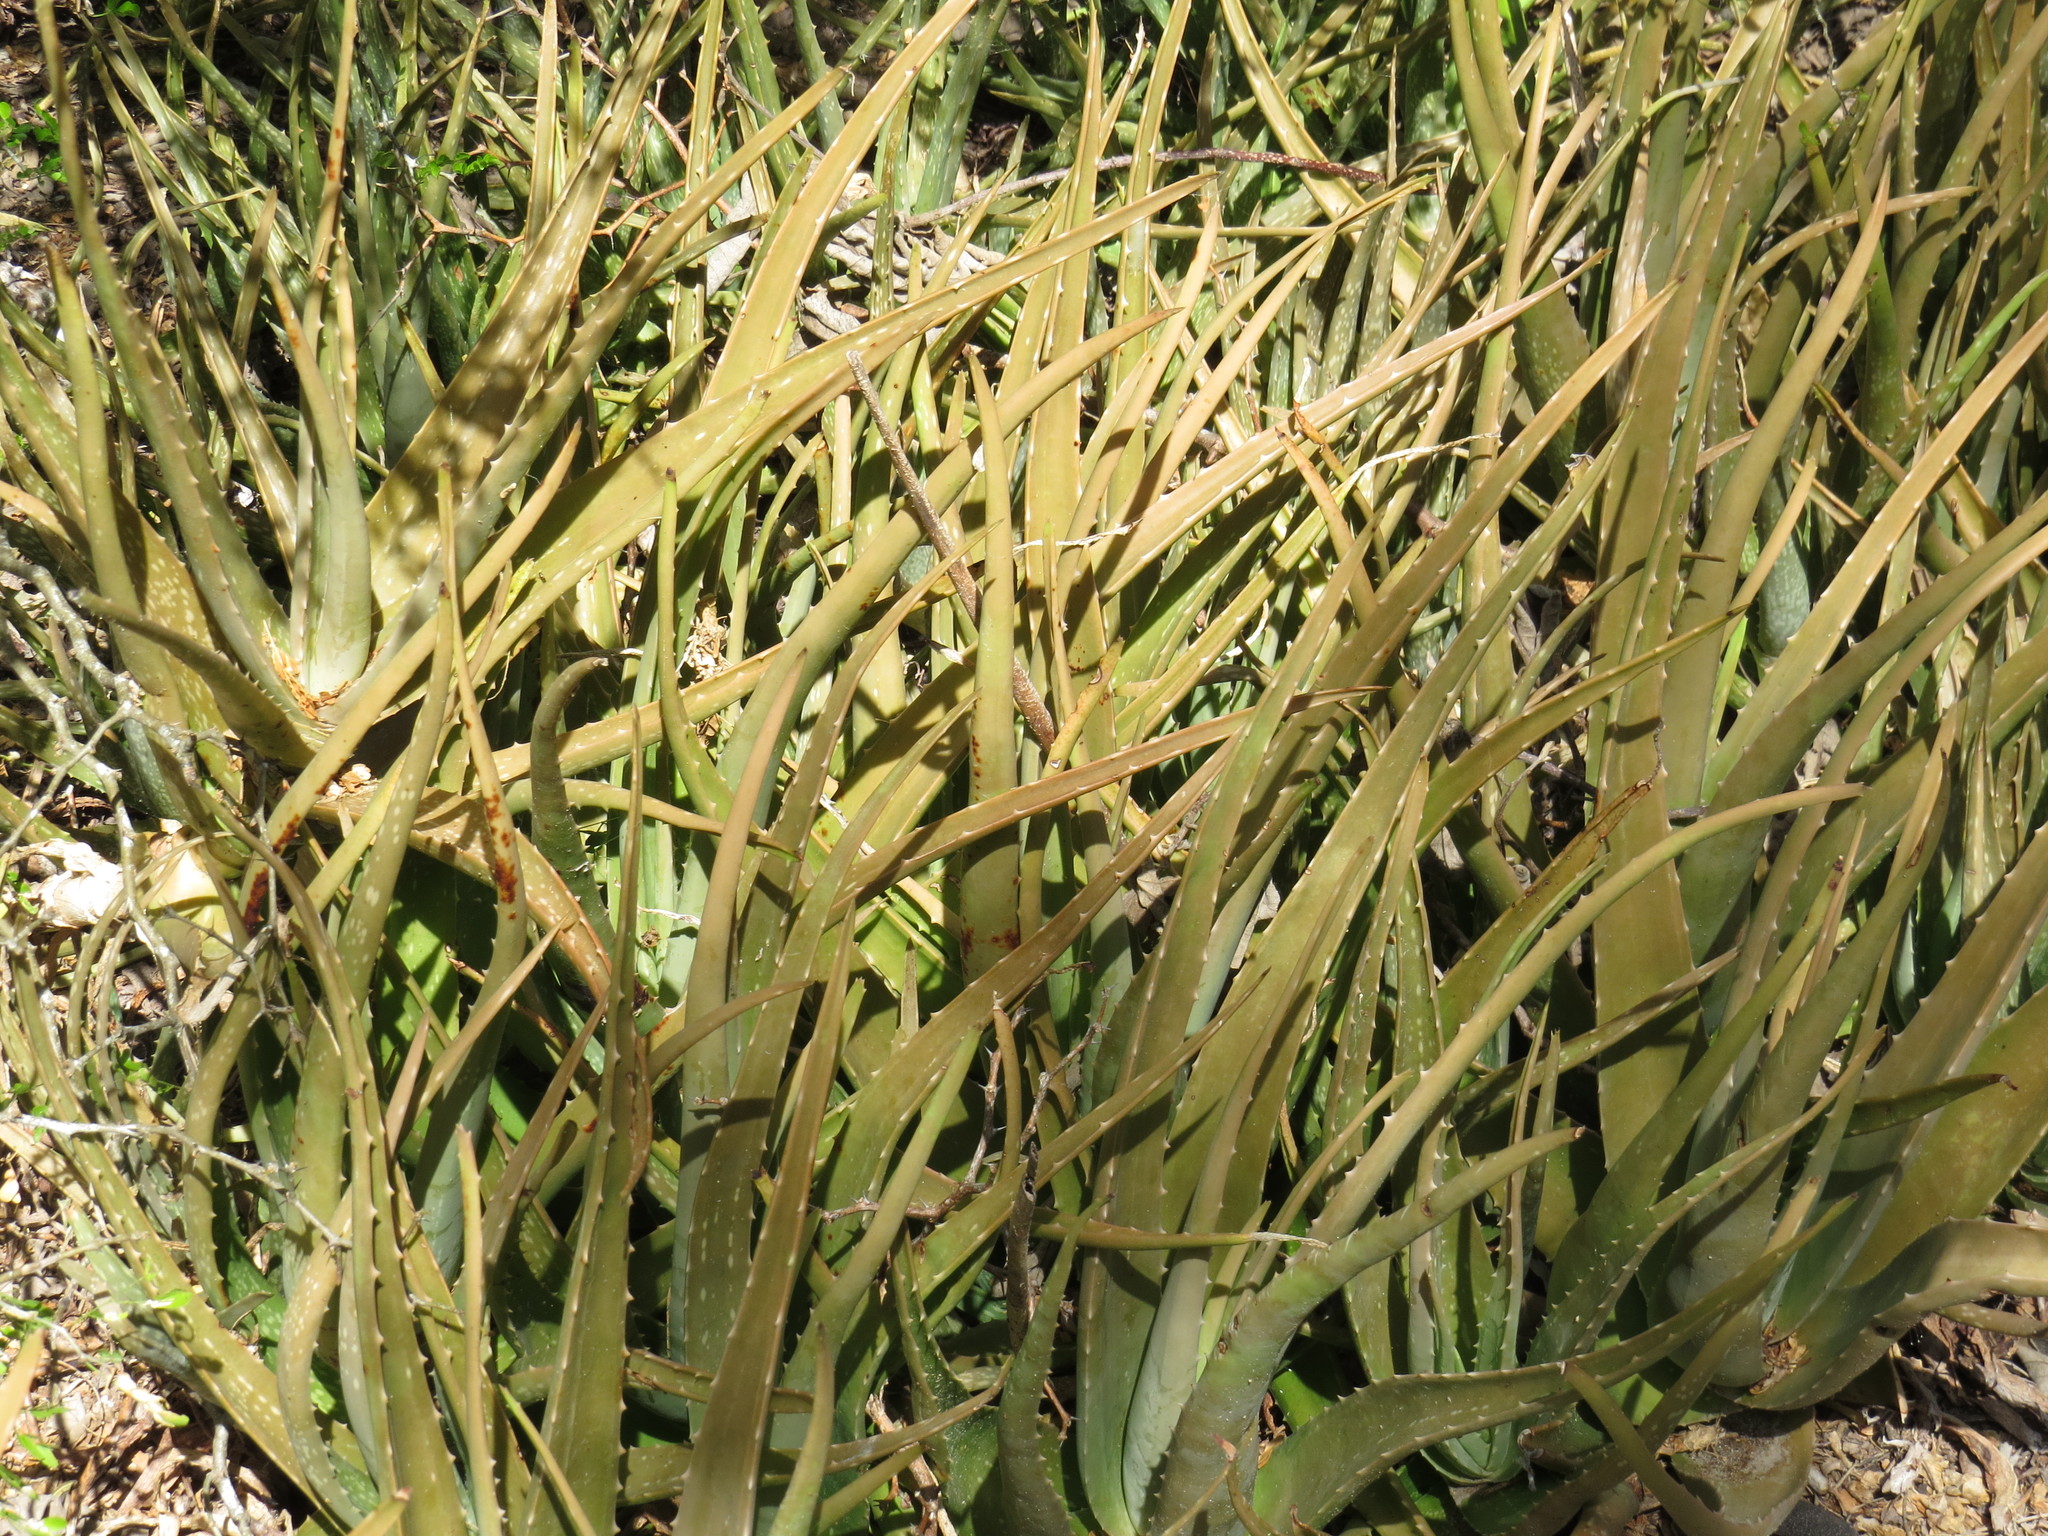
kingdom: Plantae
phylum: Tracheophyta
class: Liliopsida
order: Asparagales
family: Asphodelaceae
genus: Aloe
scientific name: Aloe vera
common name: Barbados aloe
